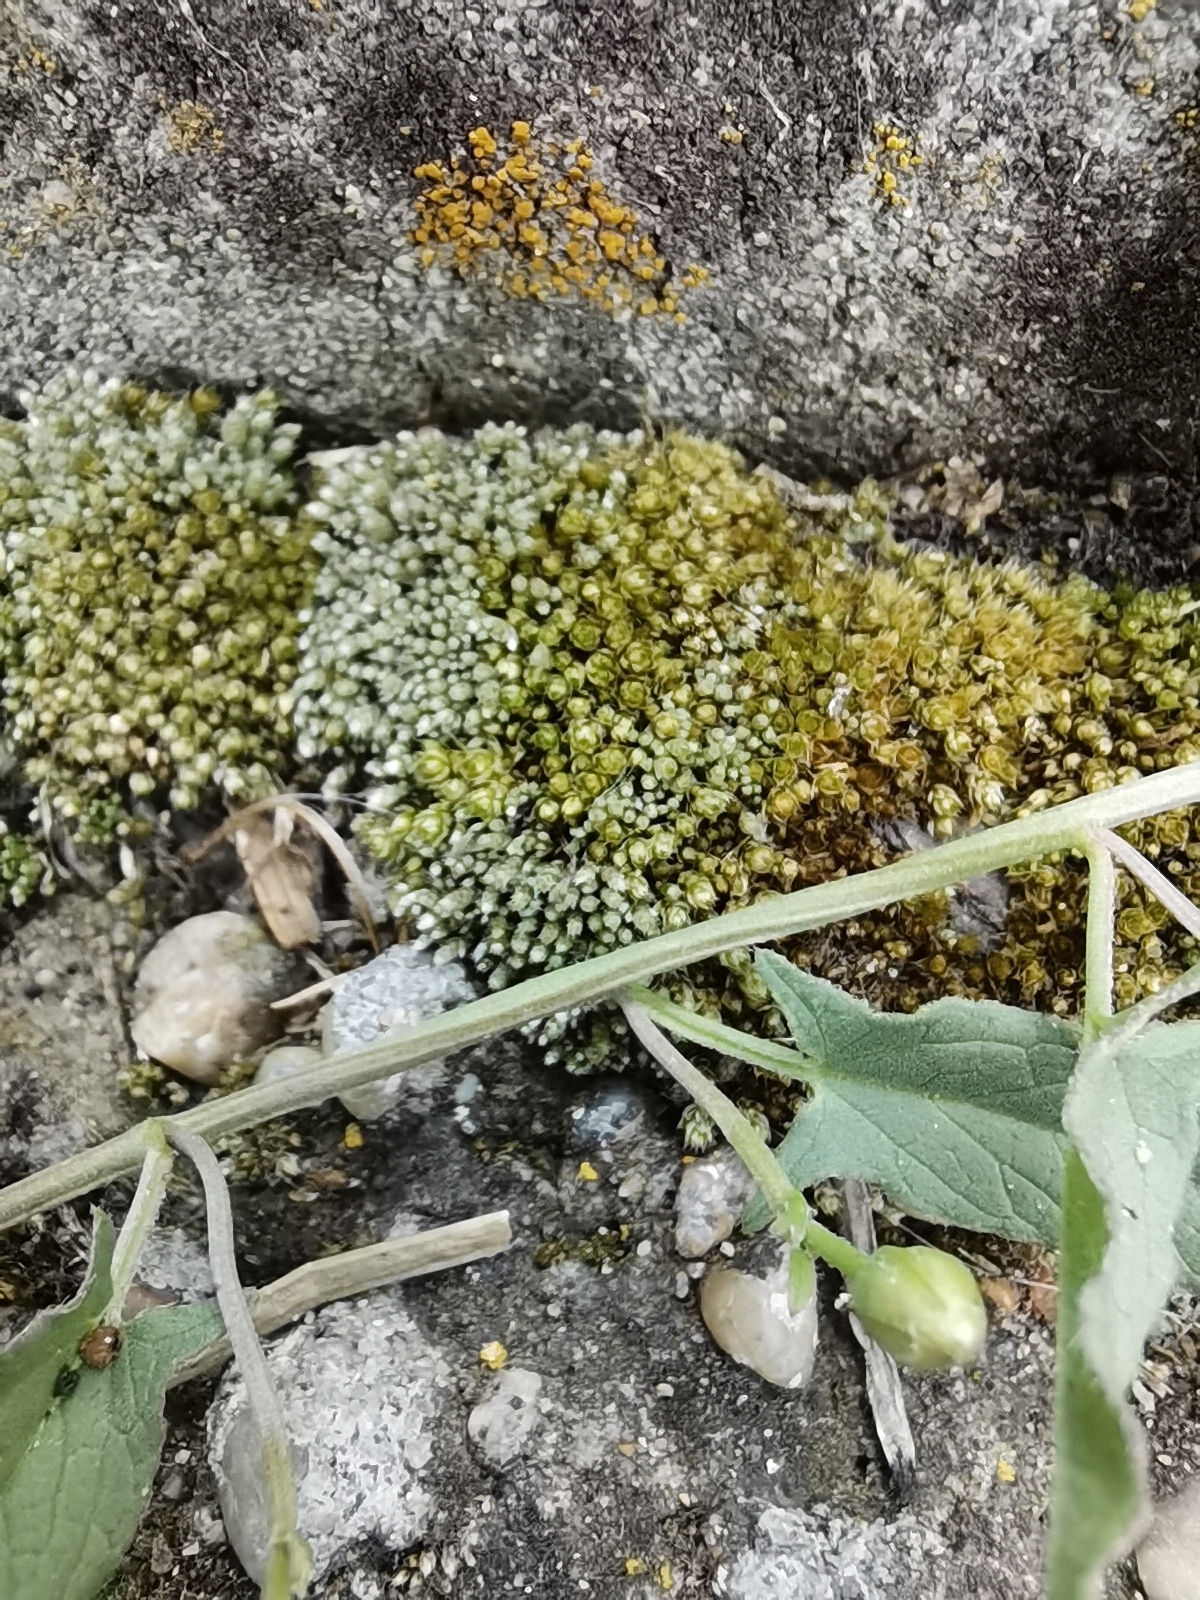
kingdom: Plantae
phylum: Bryophyta
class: Bryopsida
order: Bryales
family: Bryaceae
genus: Bryum
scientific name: Bryum argenteum
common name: Silver-moss
